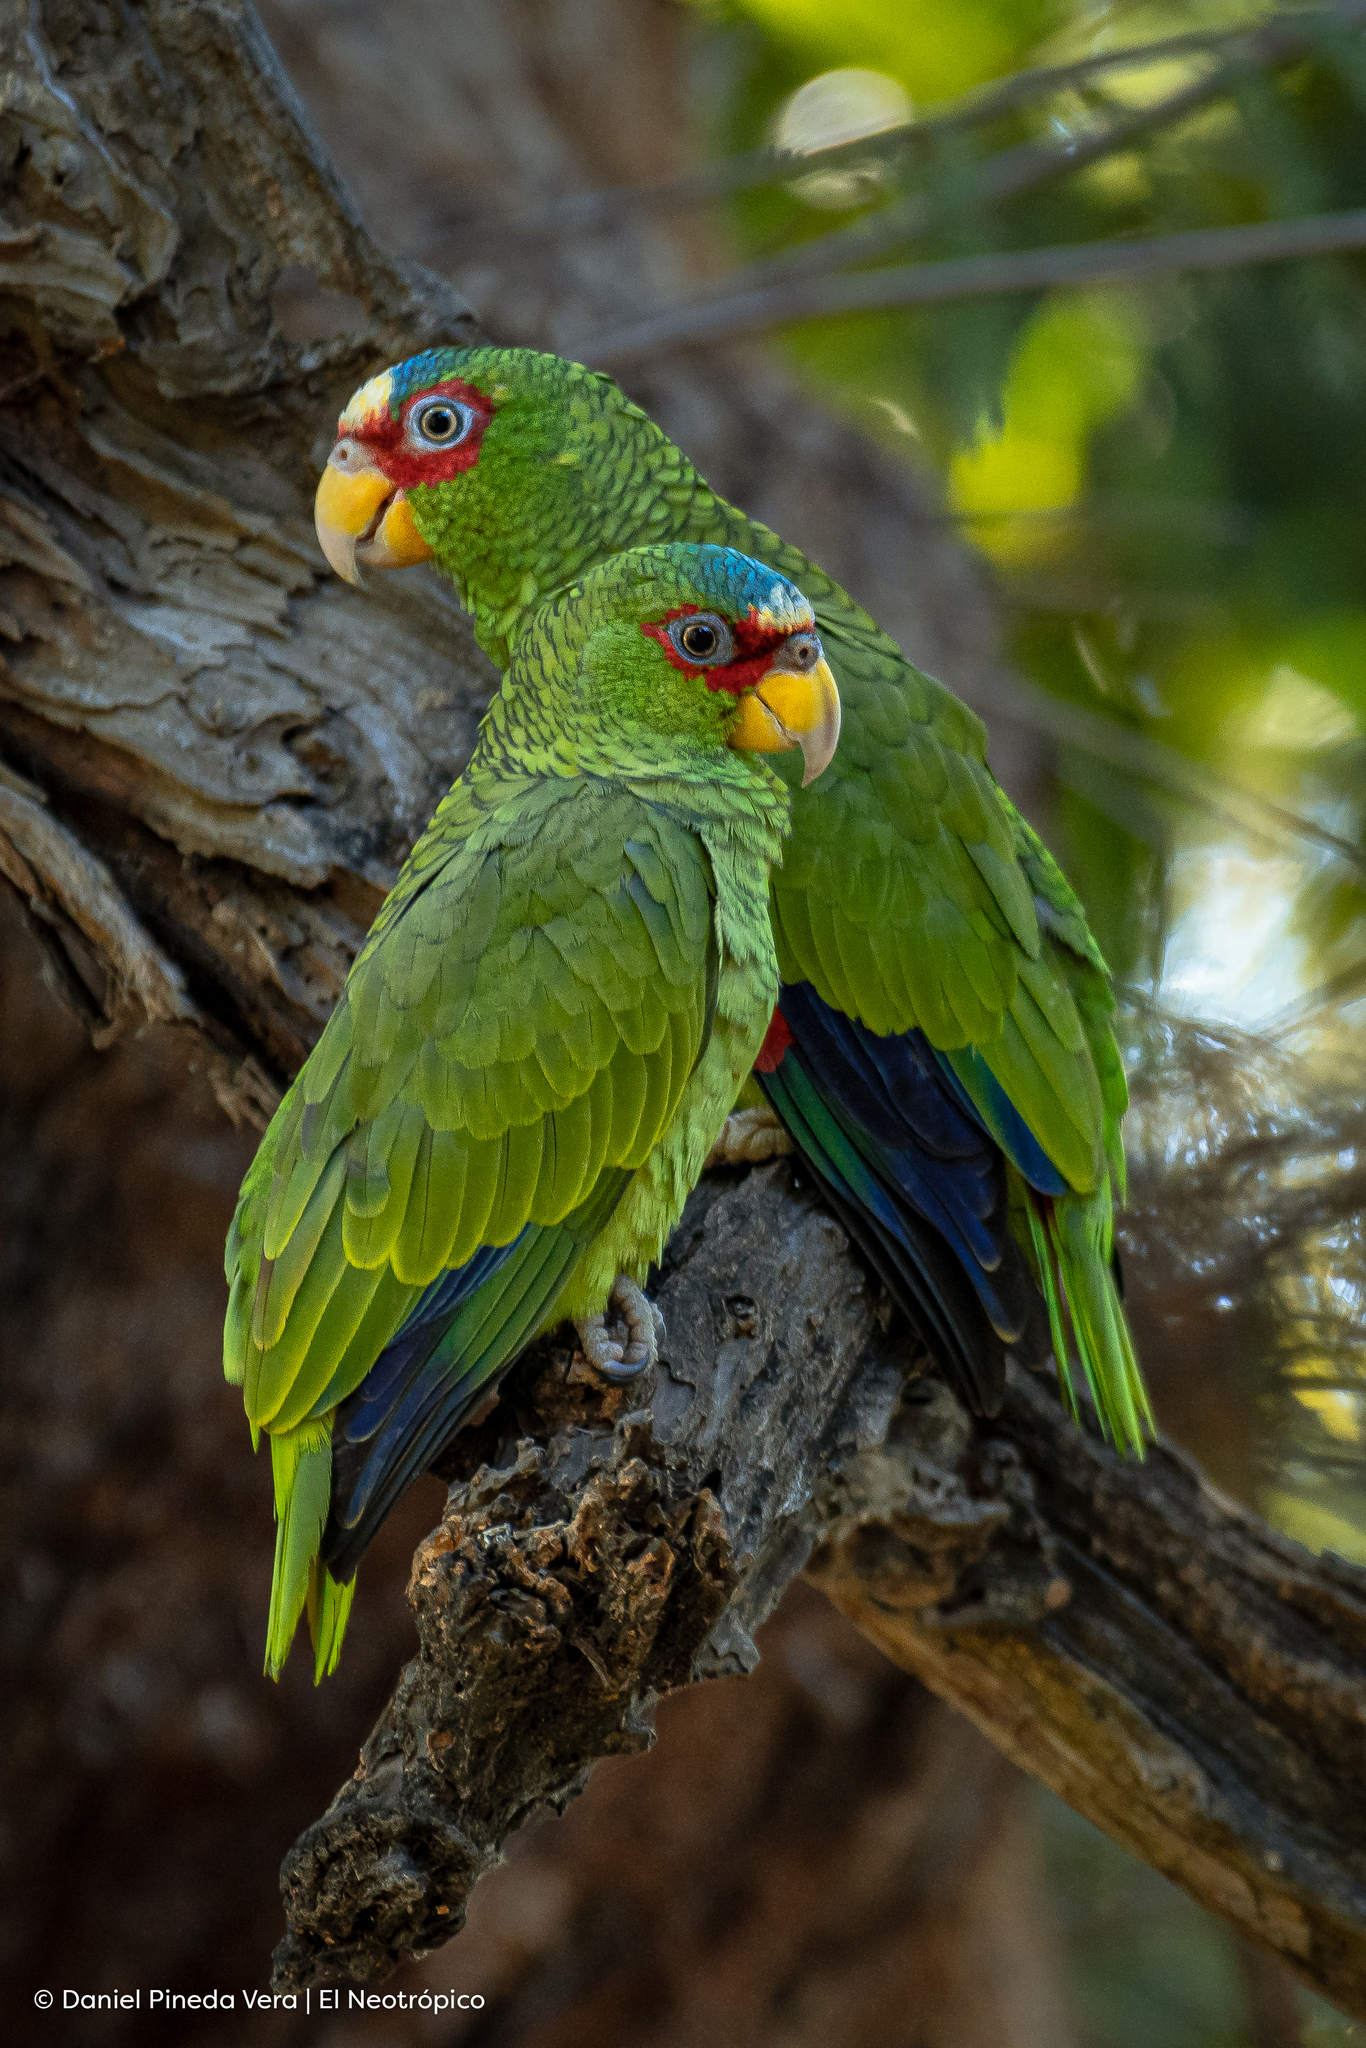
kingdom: Animalia
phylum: Chordata
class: Aves
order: Psittaciformes
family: Psittacidae
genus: Amazona
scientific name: Amazona albifrons
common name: White-fronted amazon
